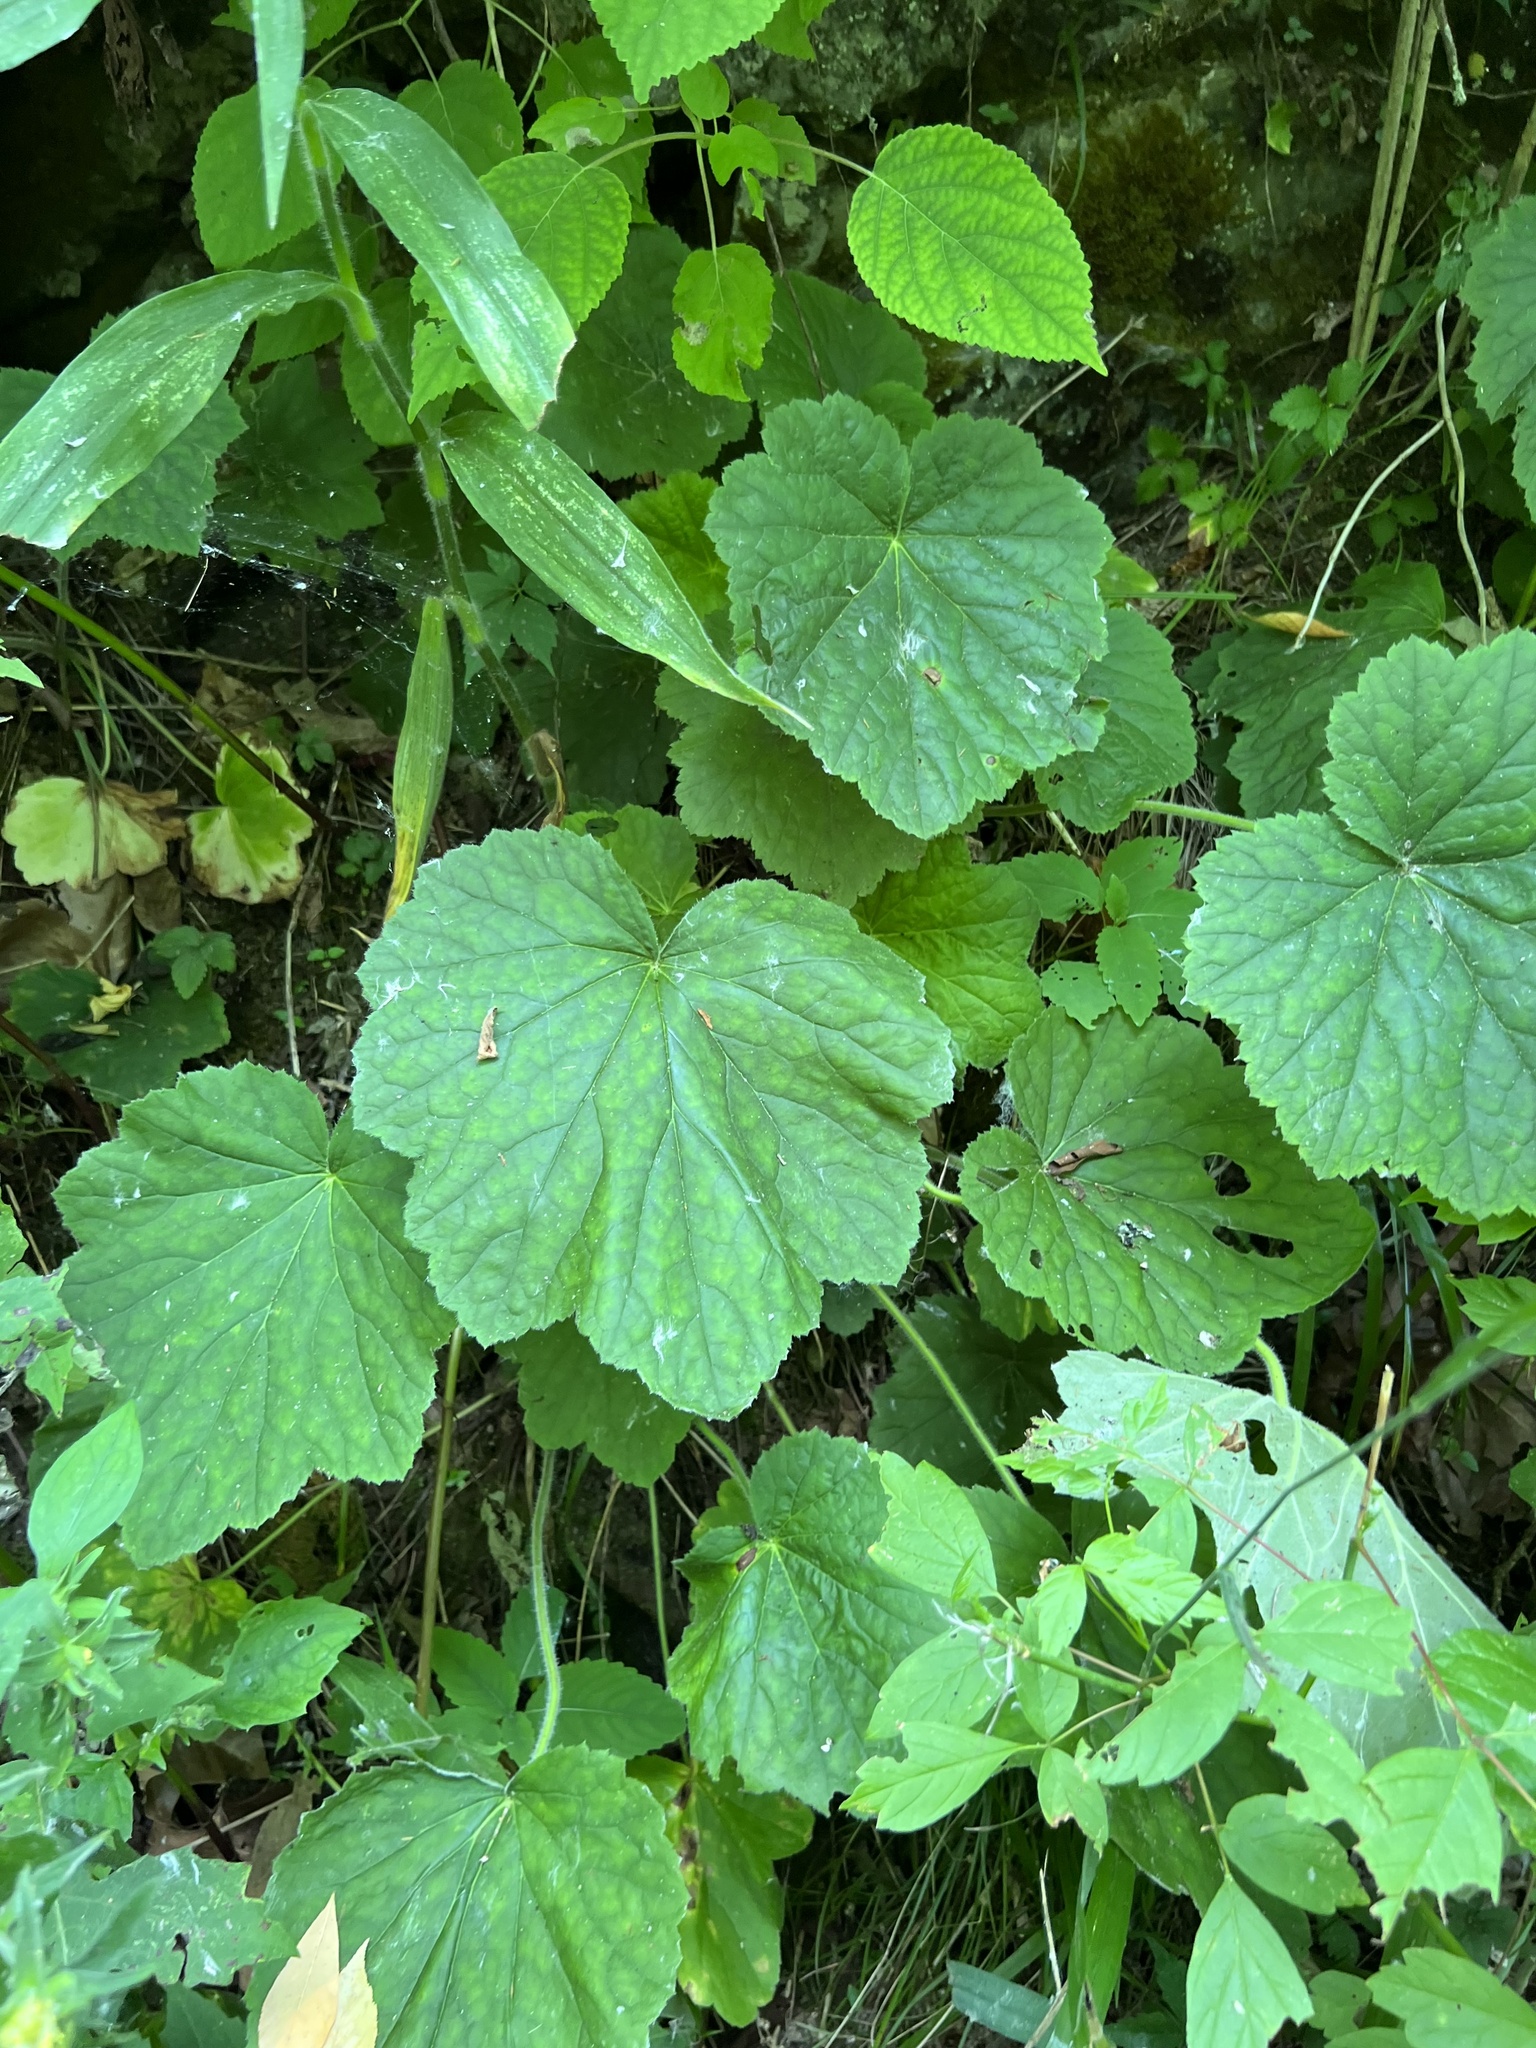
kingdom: Plantae
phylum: Tracheophyta
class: Magnoliopsida
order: Saxifragales
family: Saxifragaceae
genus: Heuchera
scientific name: Heuchera villosa
